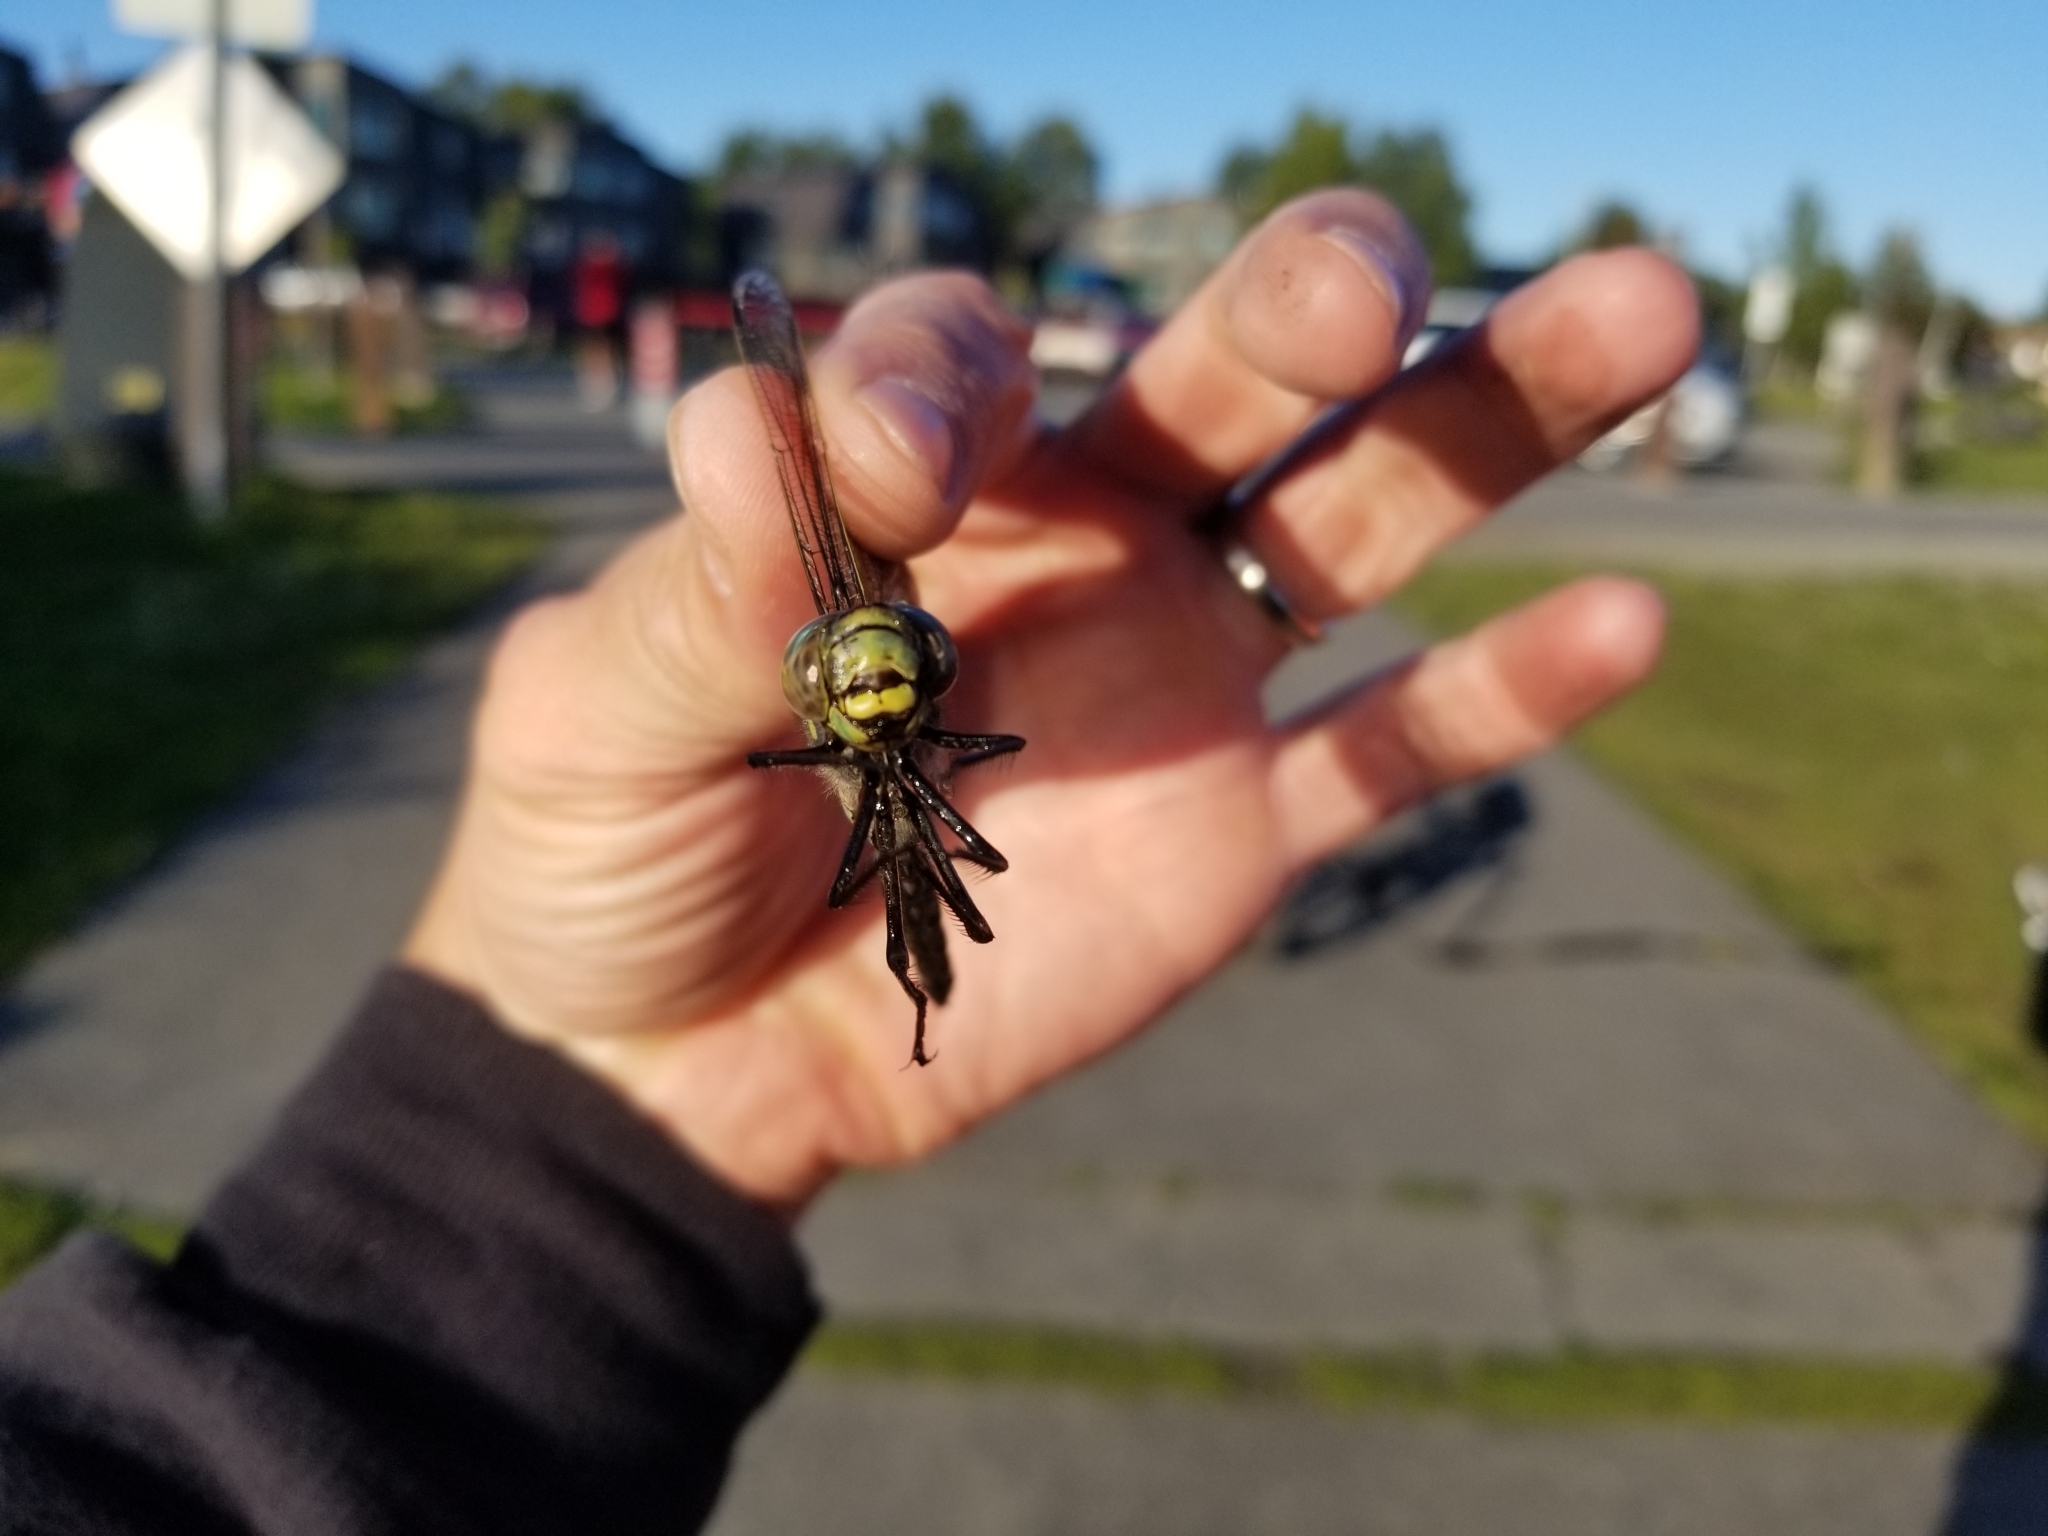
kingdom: Animalia
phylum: Arthropoda
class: Insecta
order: Odonata
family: Aeshnidae
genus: Aeshna
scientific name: Aeshna eremita
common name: Lake darner
